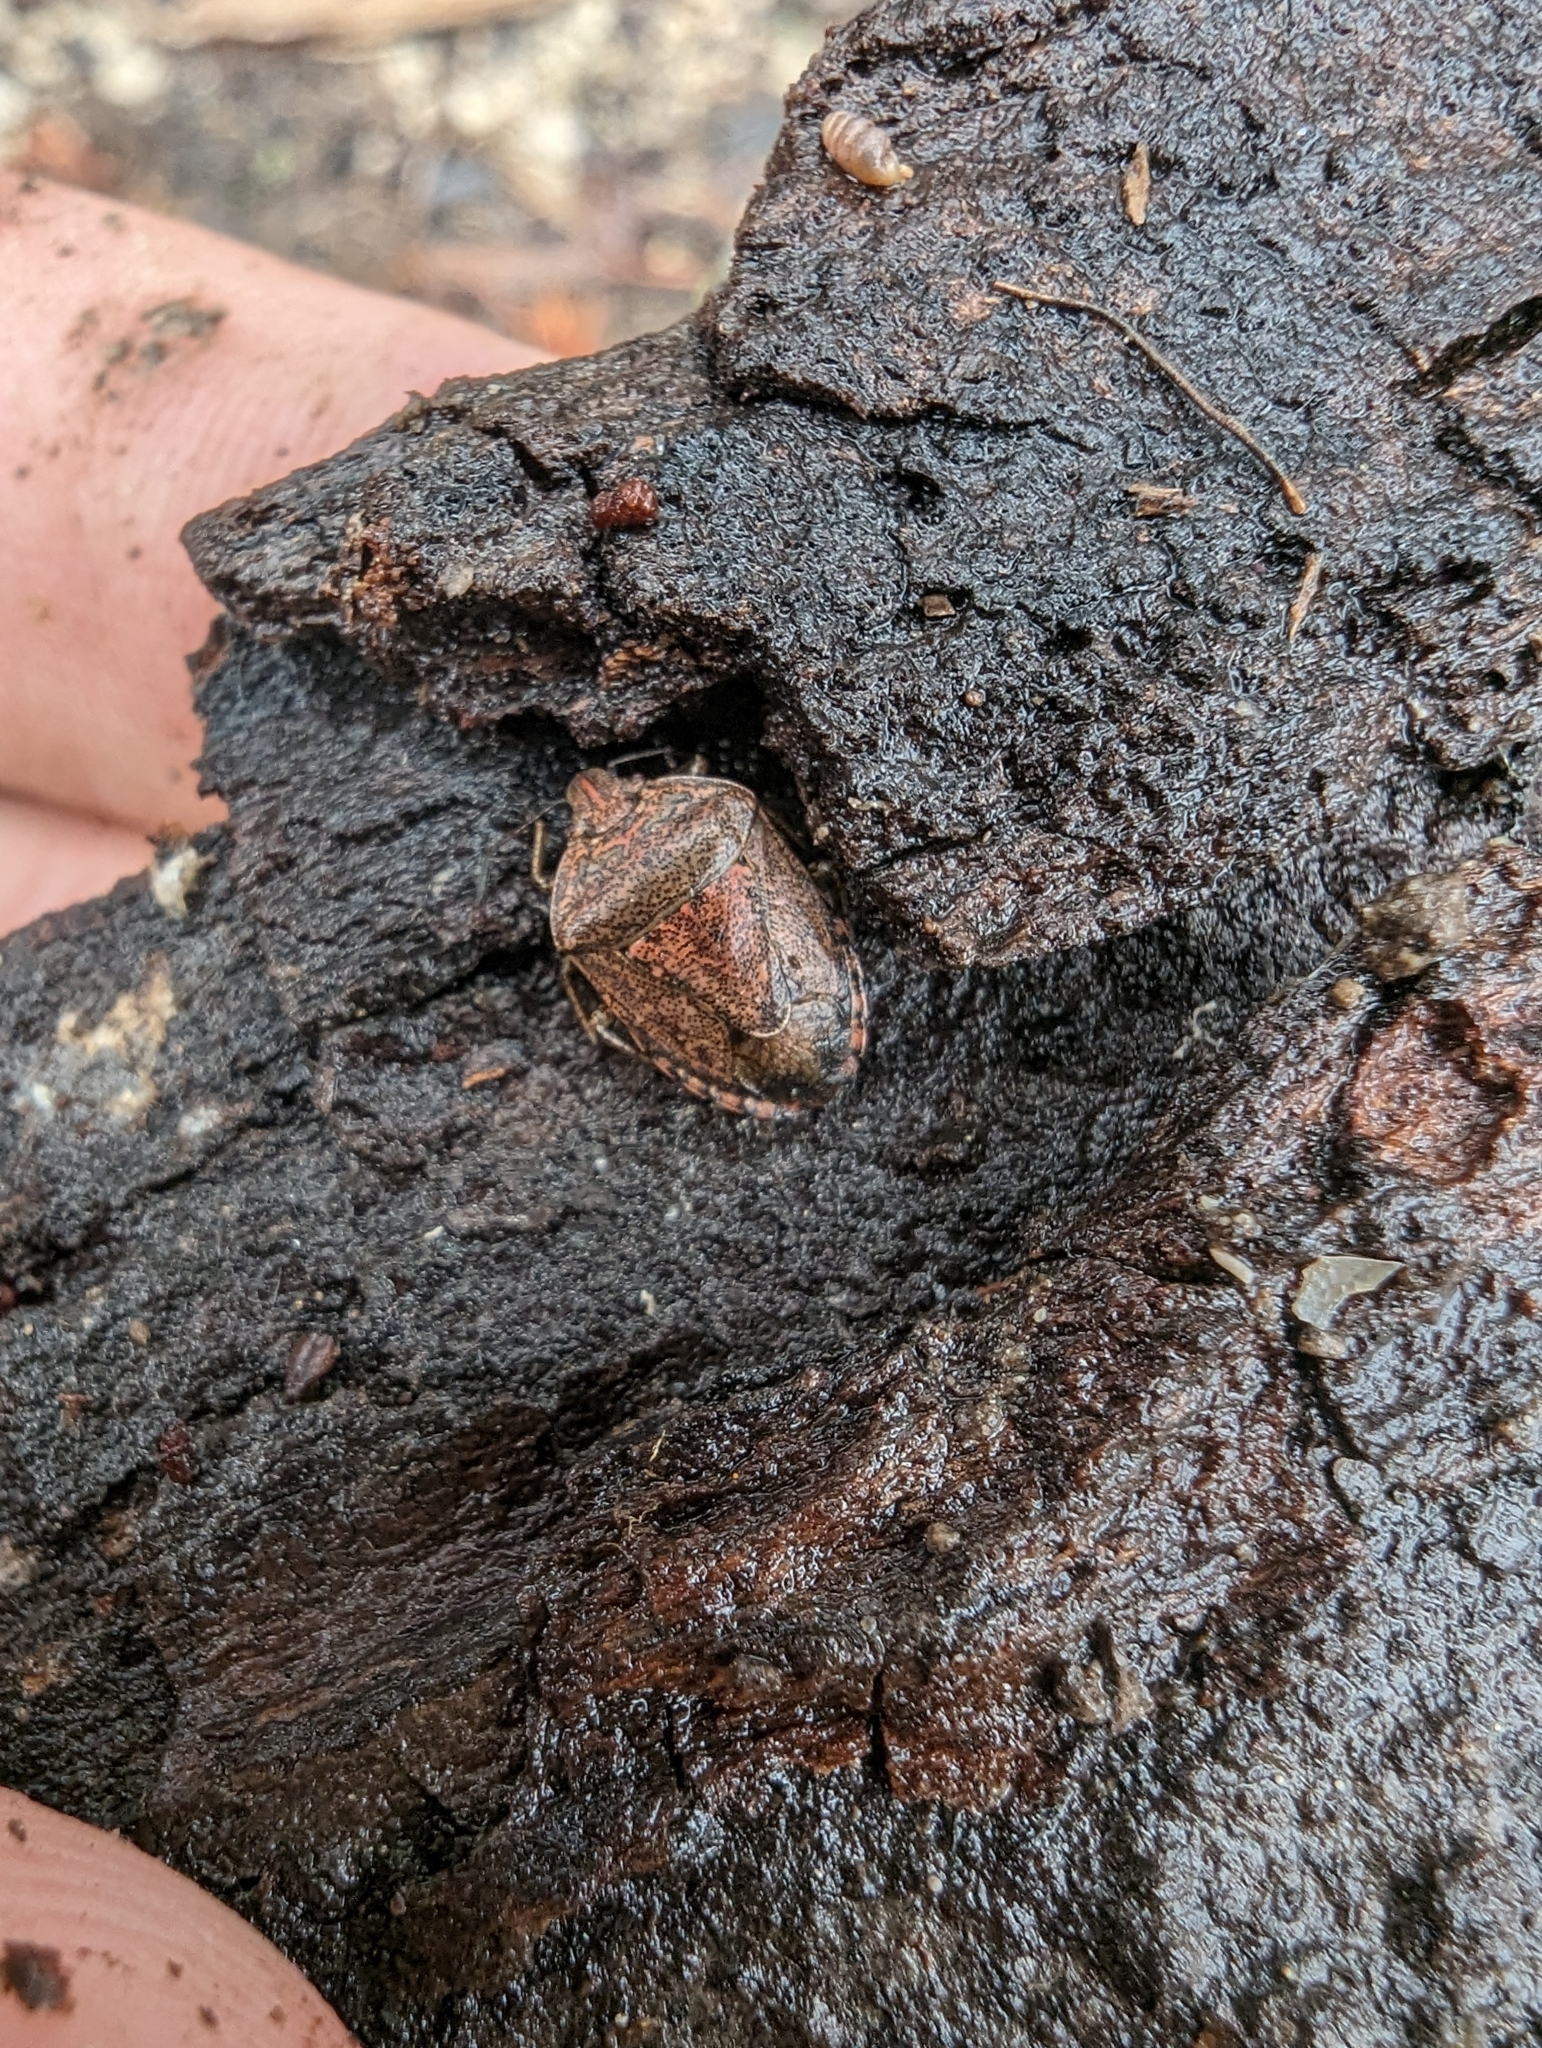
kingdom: Animalia
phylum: Arthropoda
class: Insecta
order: Hemiptera
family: Pentatomidae
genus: Hymenarcys
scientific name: Hymenarcys nervosa
